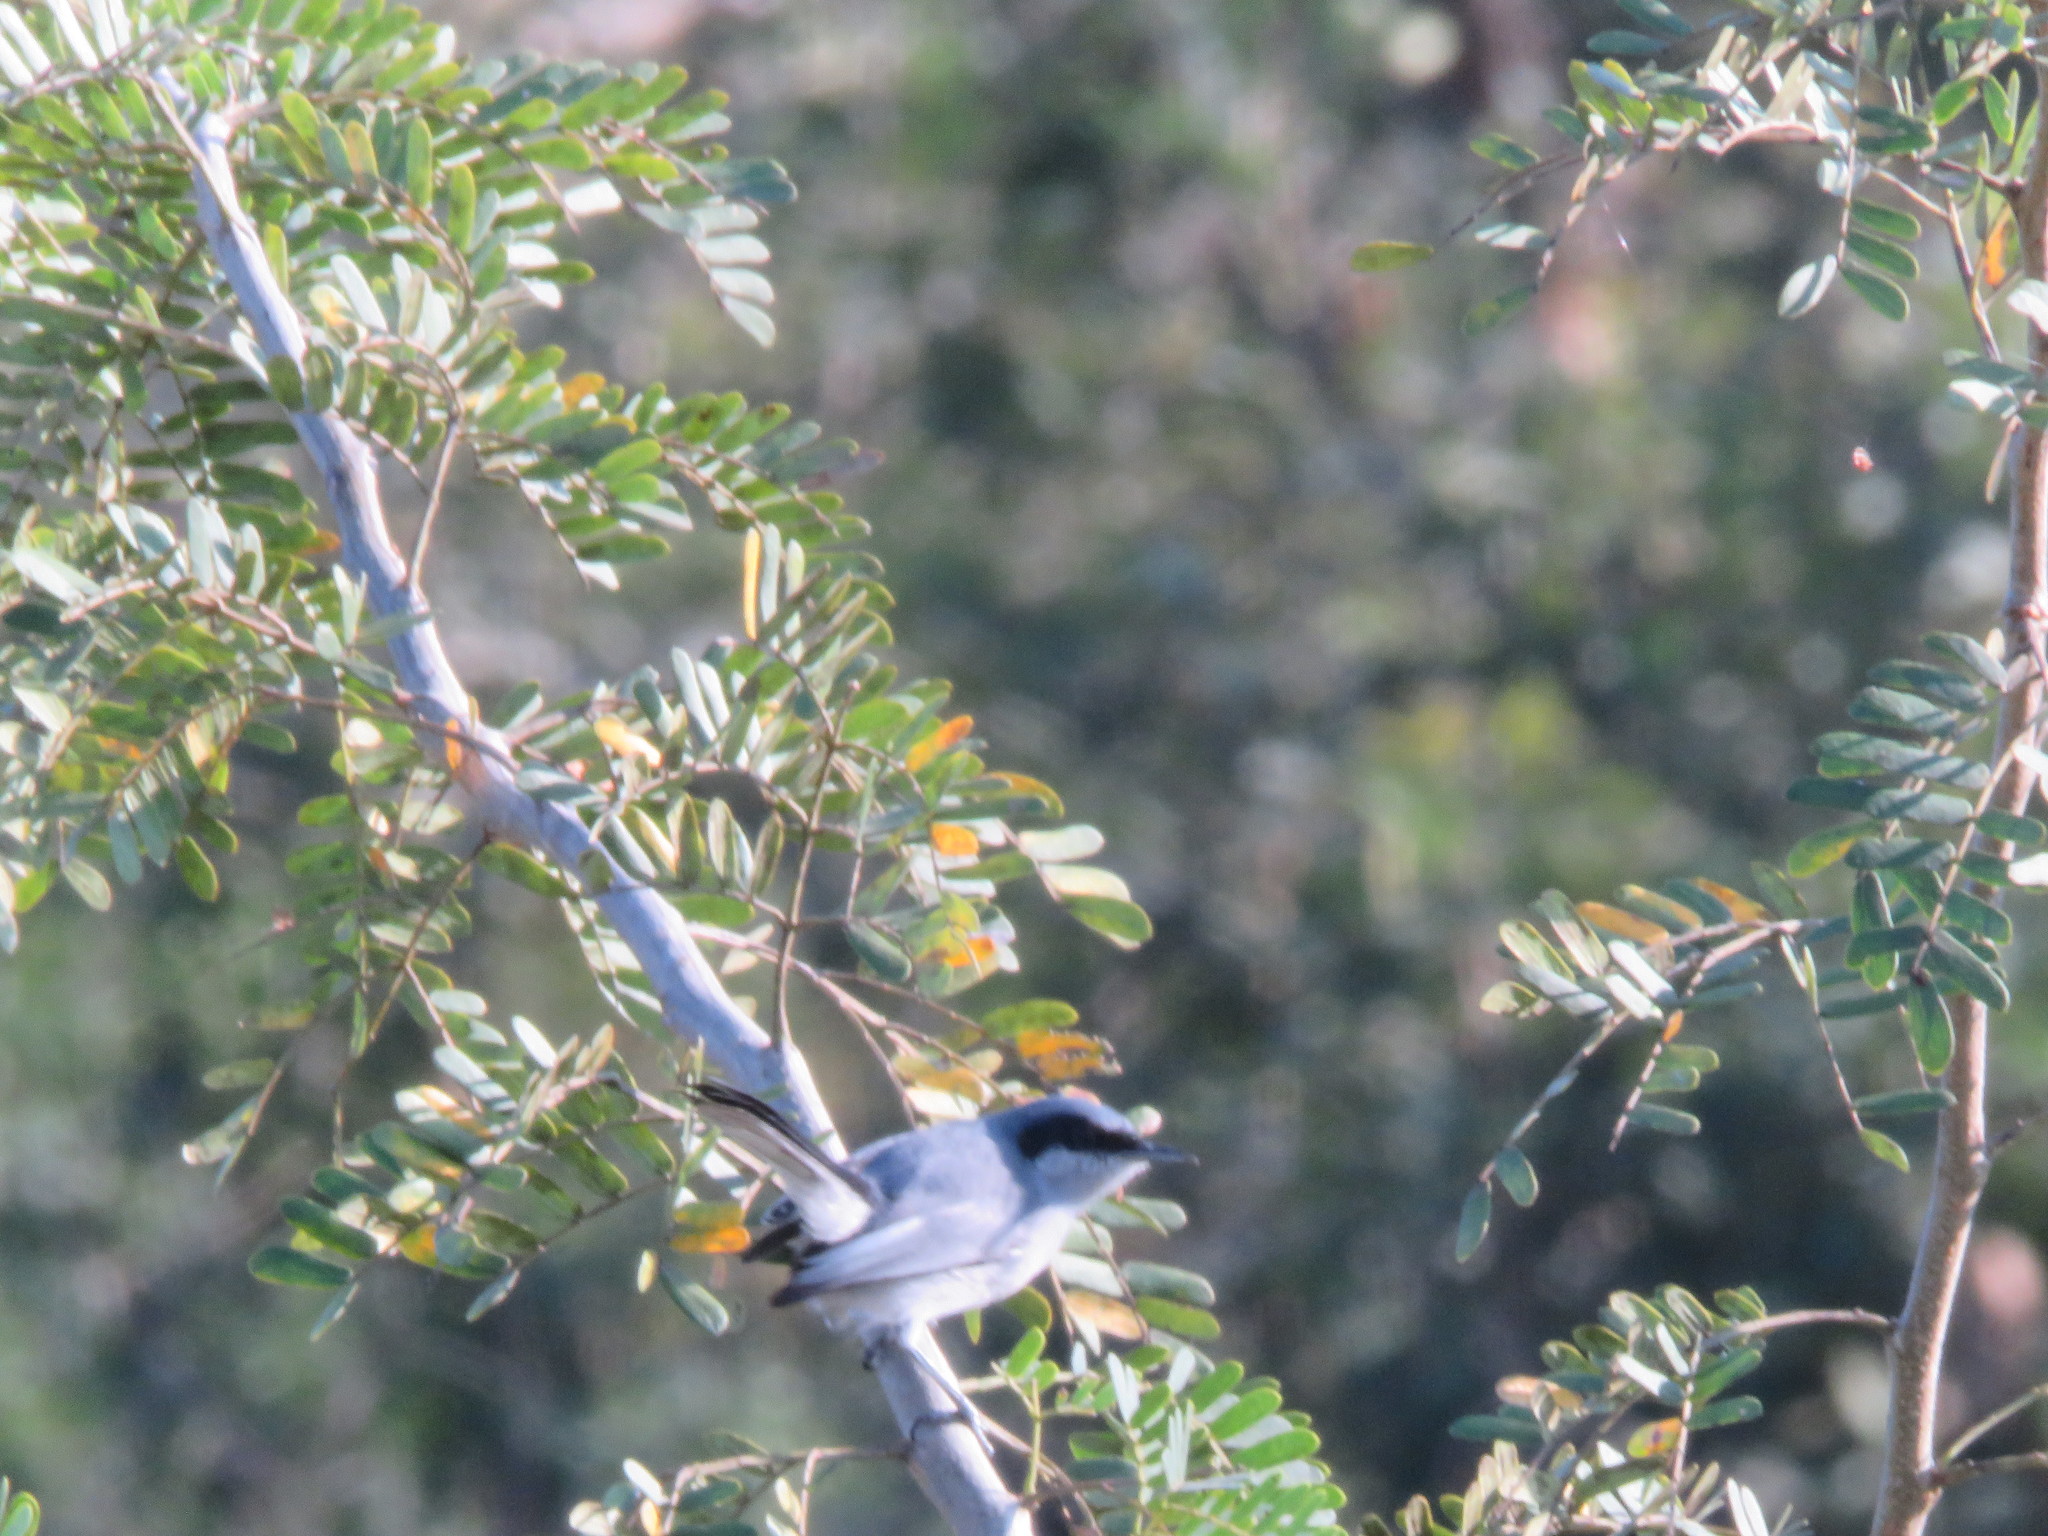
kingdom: Animalia
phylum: Chordata
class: Aves
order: Passeriformes
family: Polioptilidae
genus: Polioptila
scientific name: Polioptila dumicola
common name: Masked gnatcatcher
